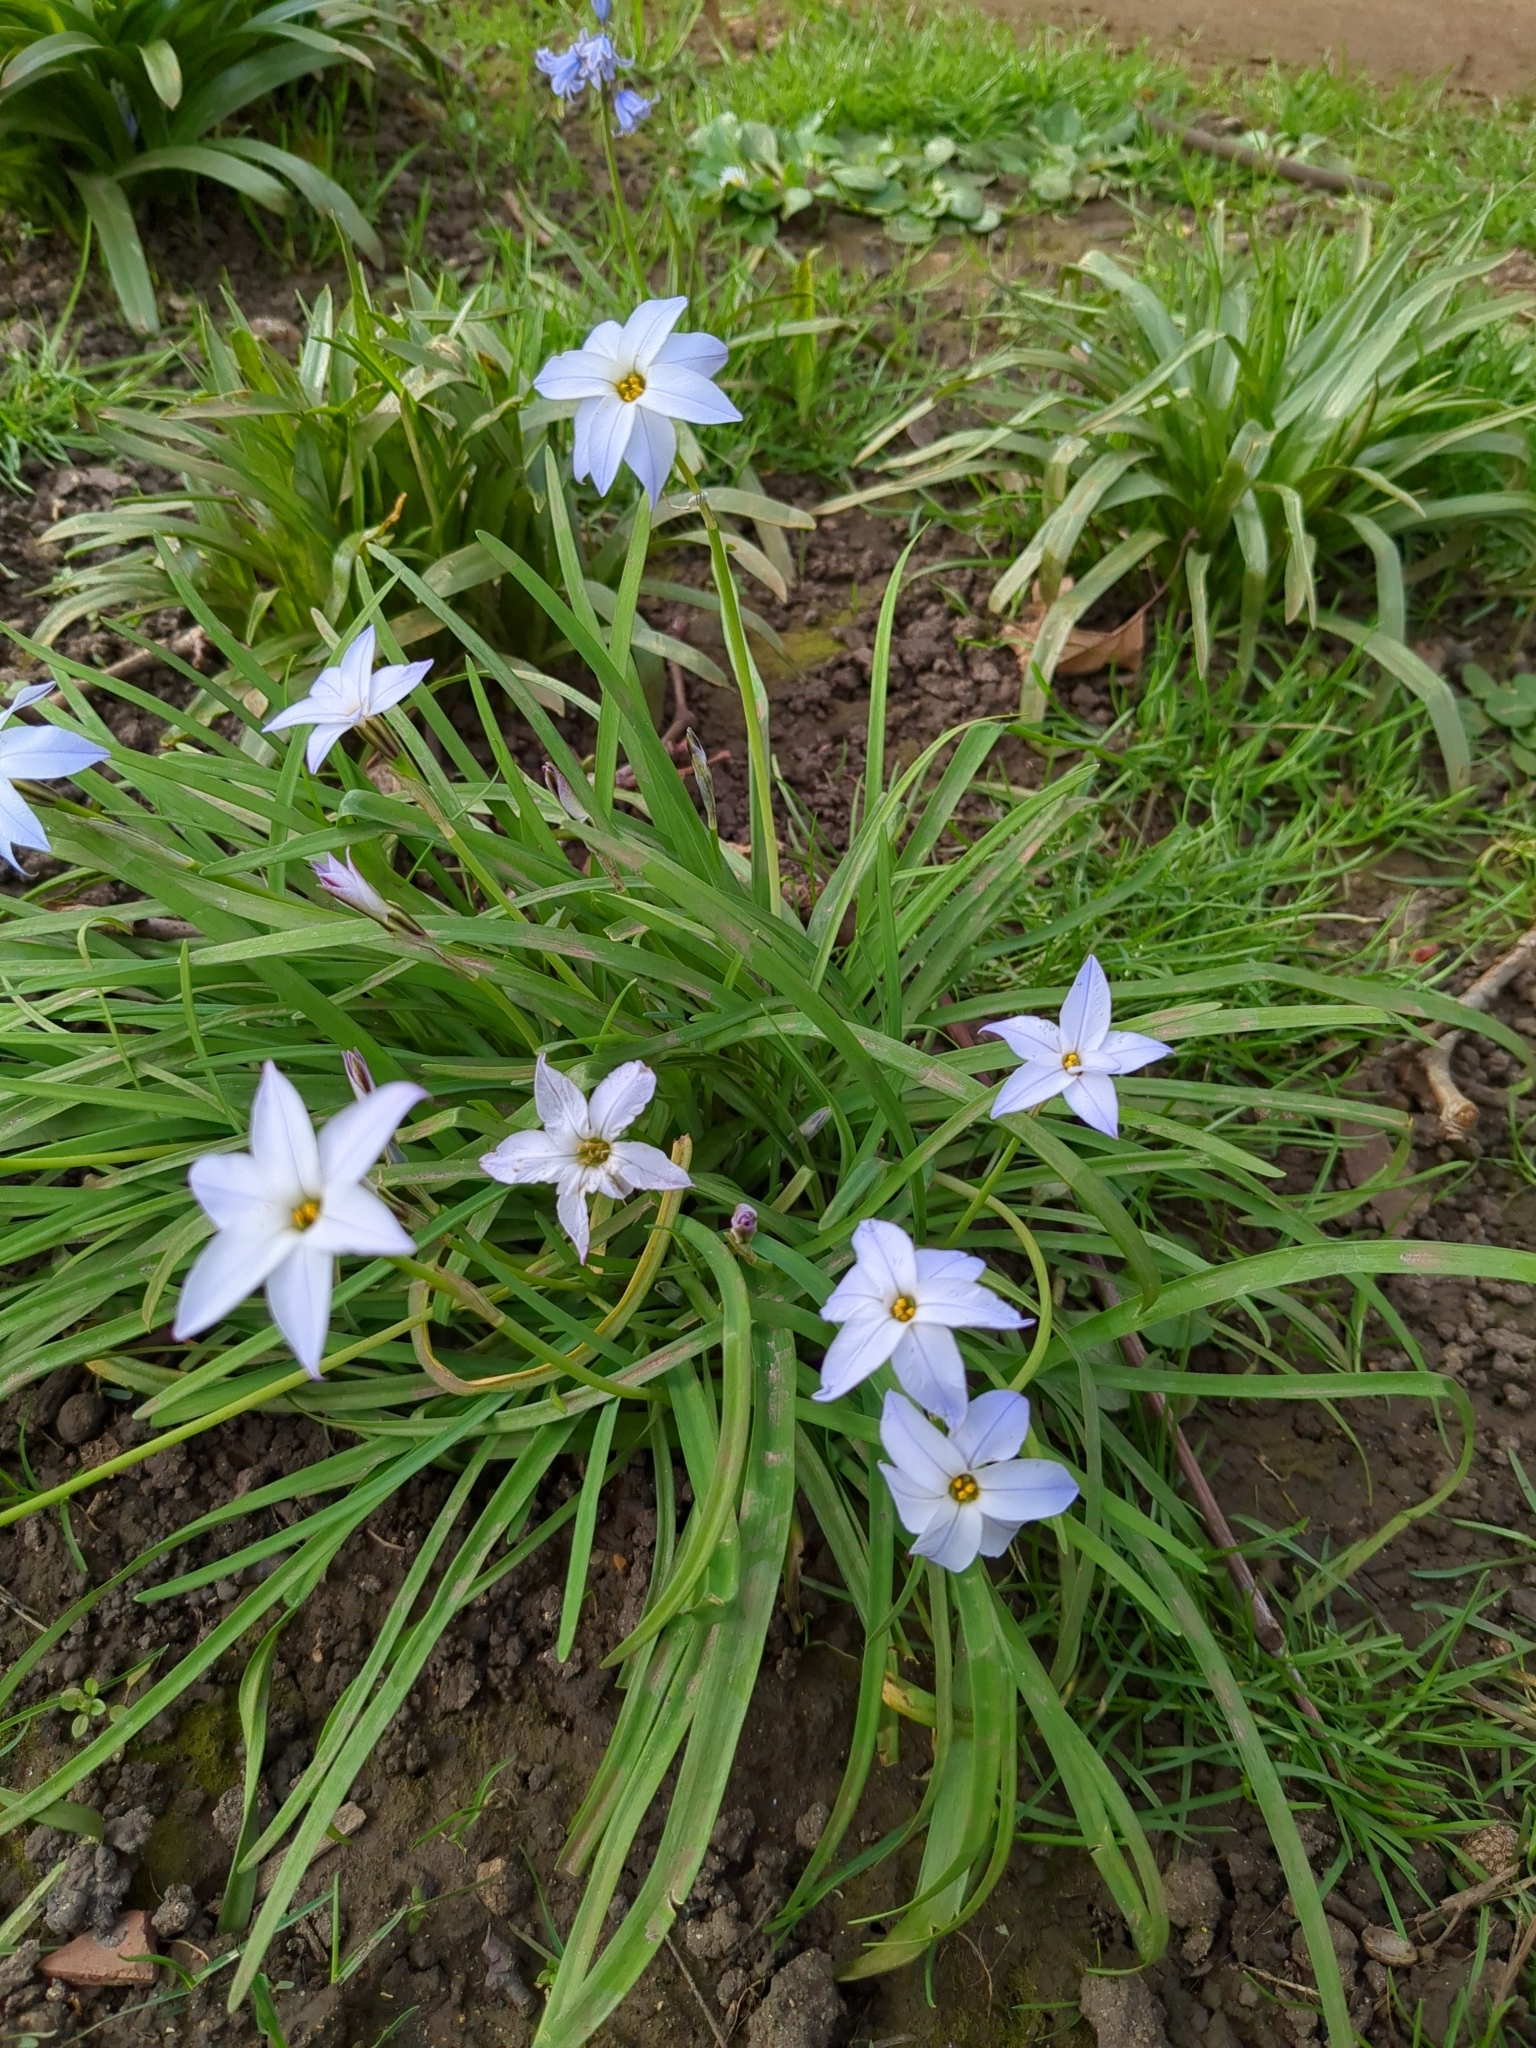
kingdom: Plantae
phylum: Tracheophyta
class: Liliopsida
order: Asparagales
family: Amaryllidaceae
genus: Ipheion
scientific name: Ipheion uniflorum
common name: Spring starflower
